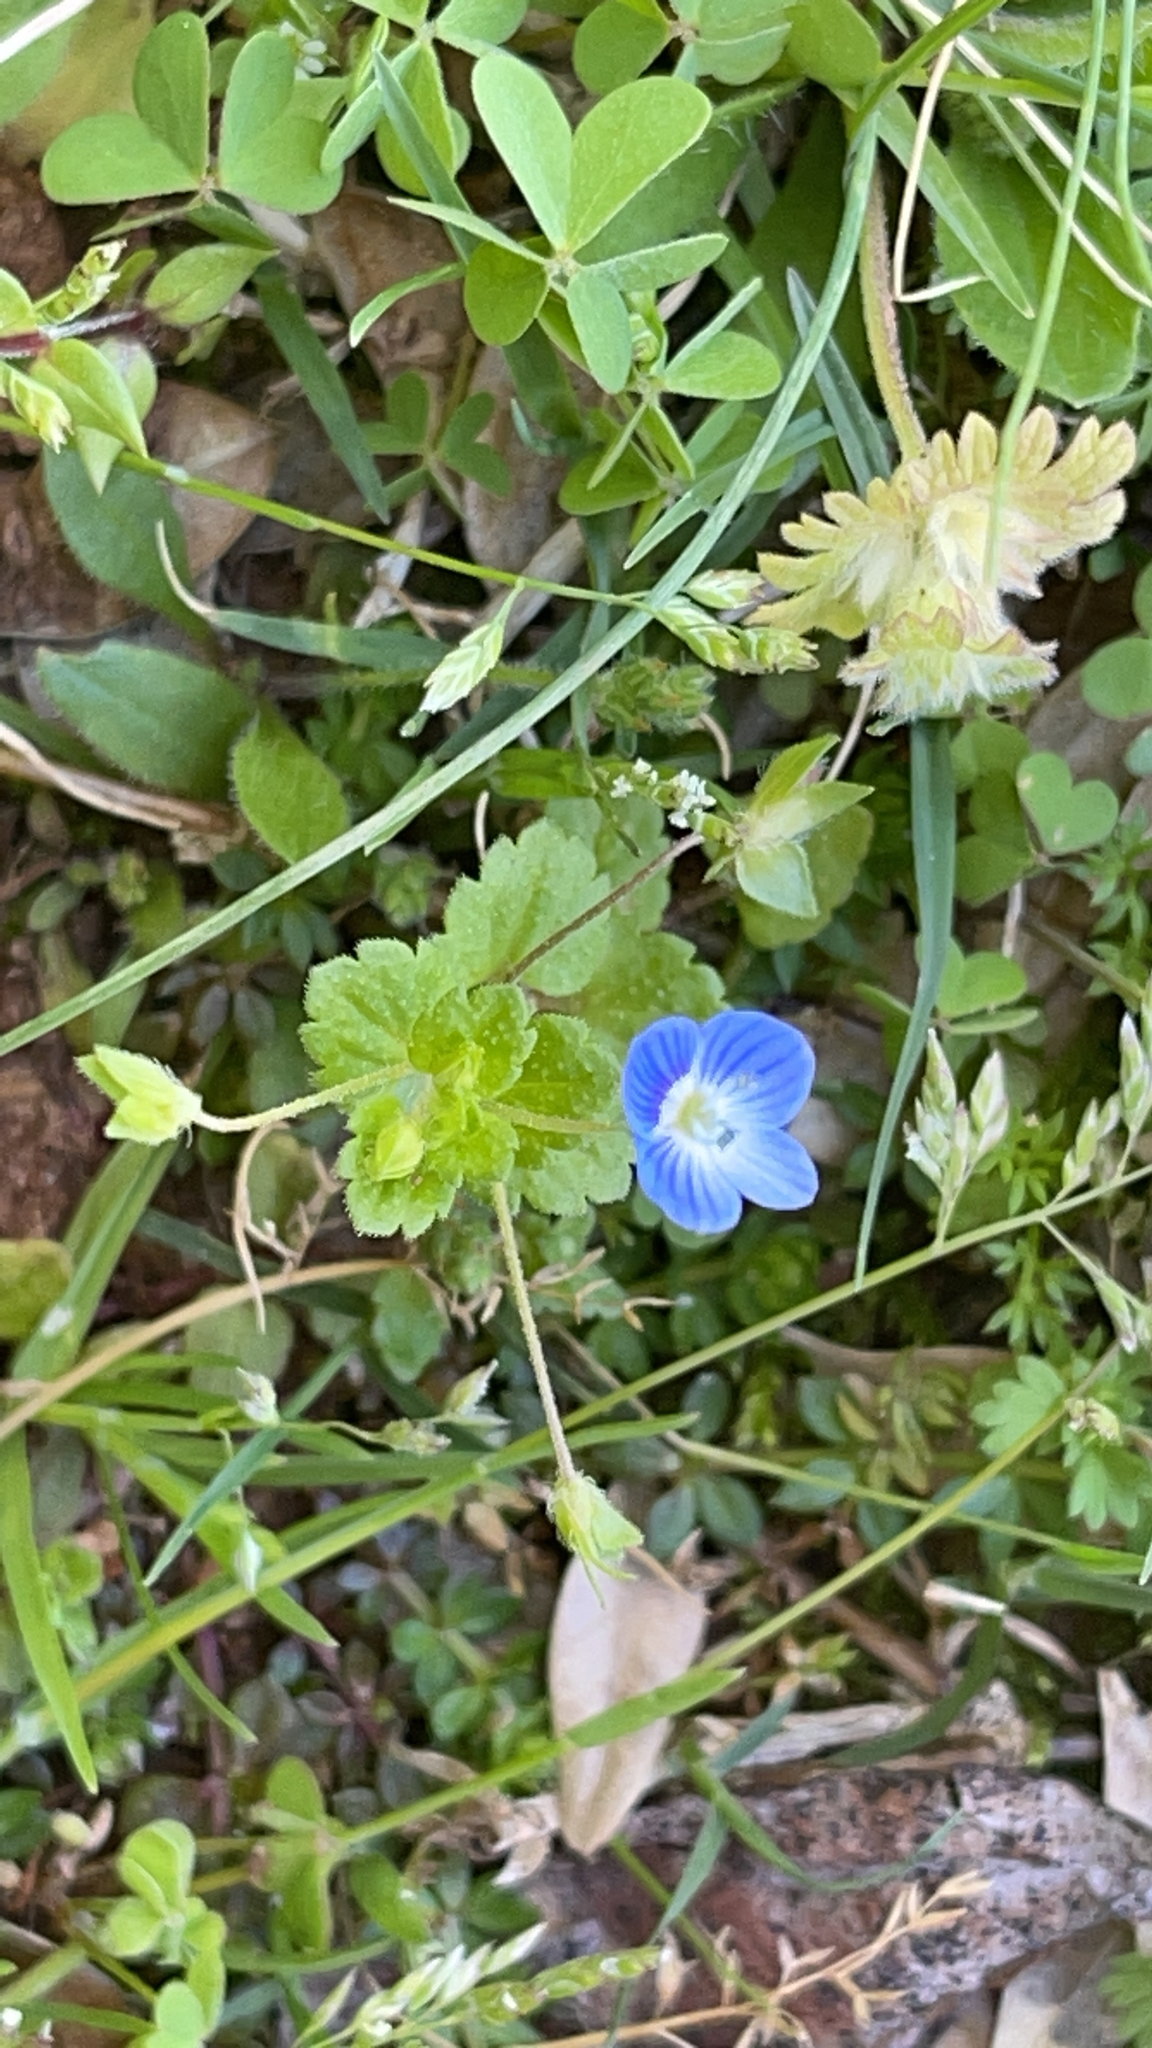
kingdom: Plantae
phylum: Tracheophyta
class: Magnoliopsida
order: Lamiales
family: Plantaginaceae
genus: Veronica
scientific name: Veronica persica
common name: Common field-speedwell
